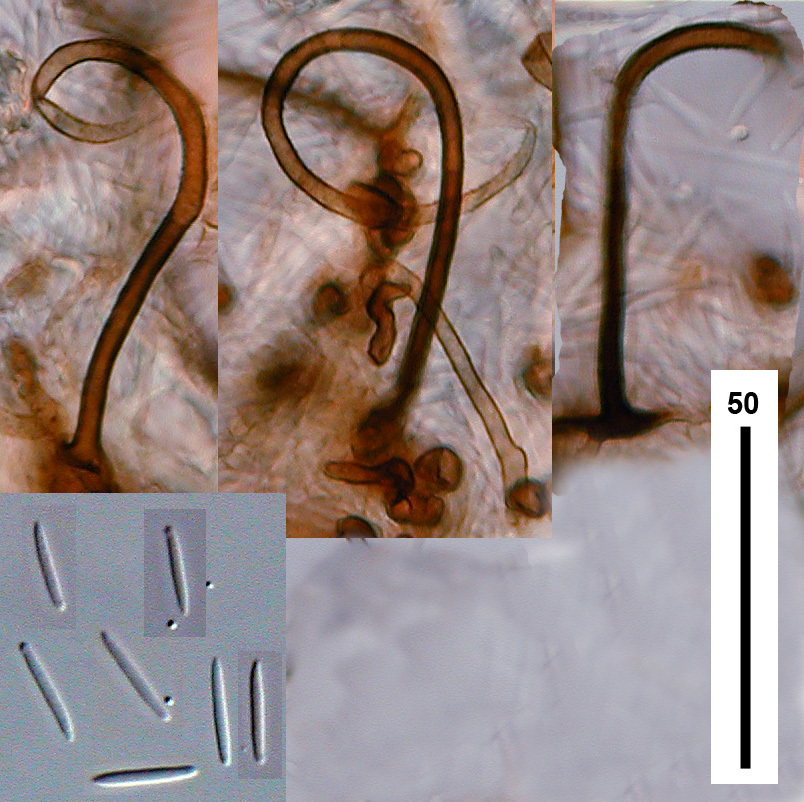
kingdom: Fungi
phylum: Ascomycota
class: Sordariomycetes
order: Xylariales
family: Xylariaceae
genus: Circinotrichum
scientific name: Circinotrichum maculiforme
